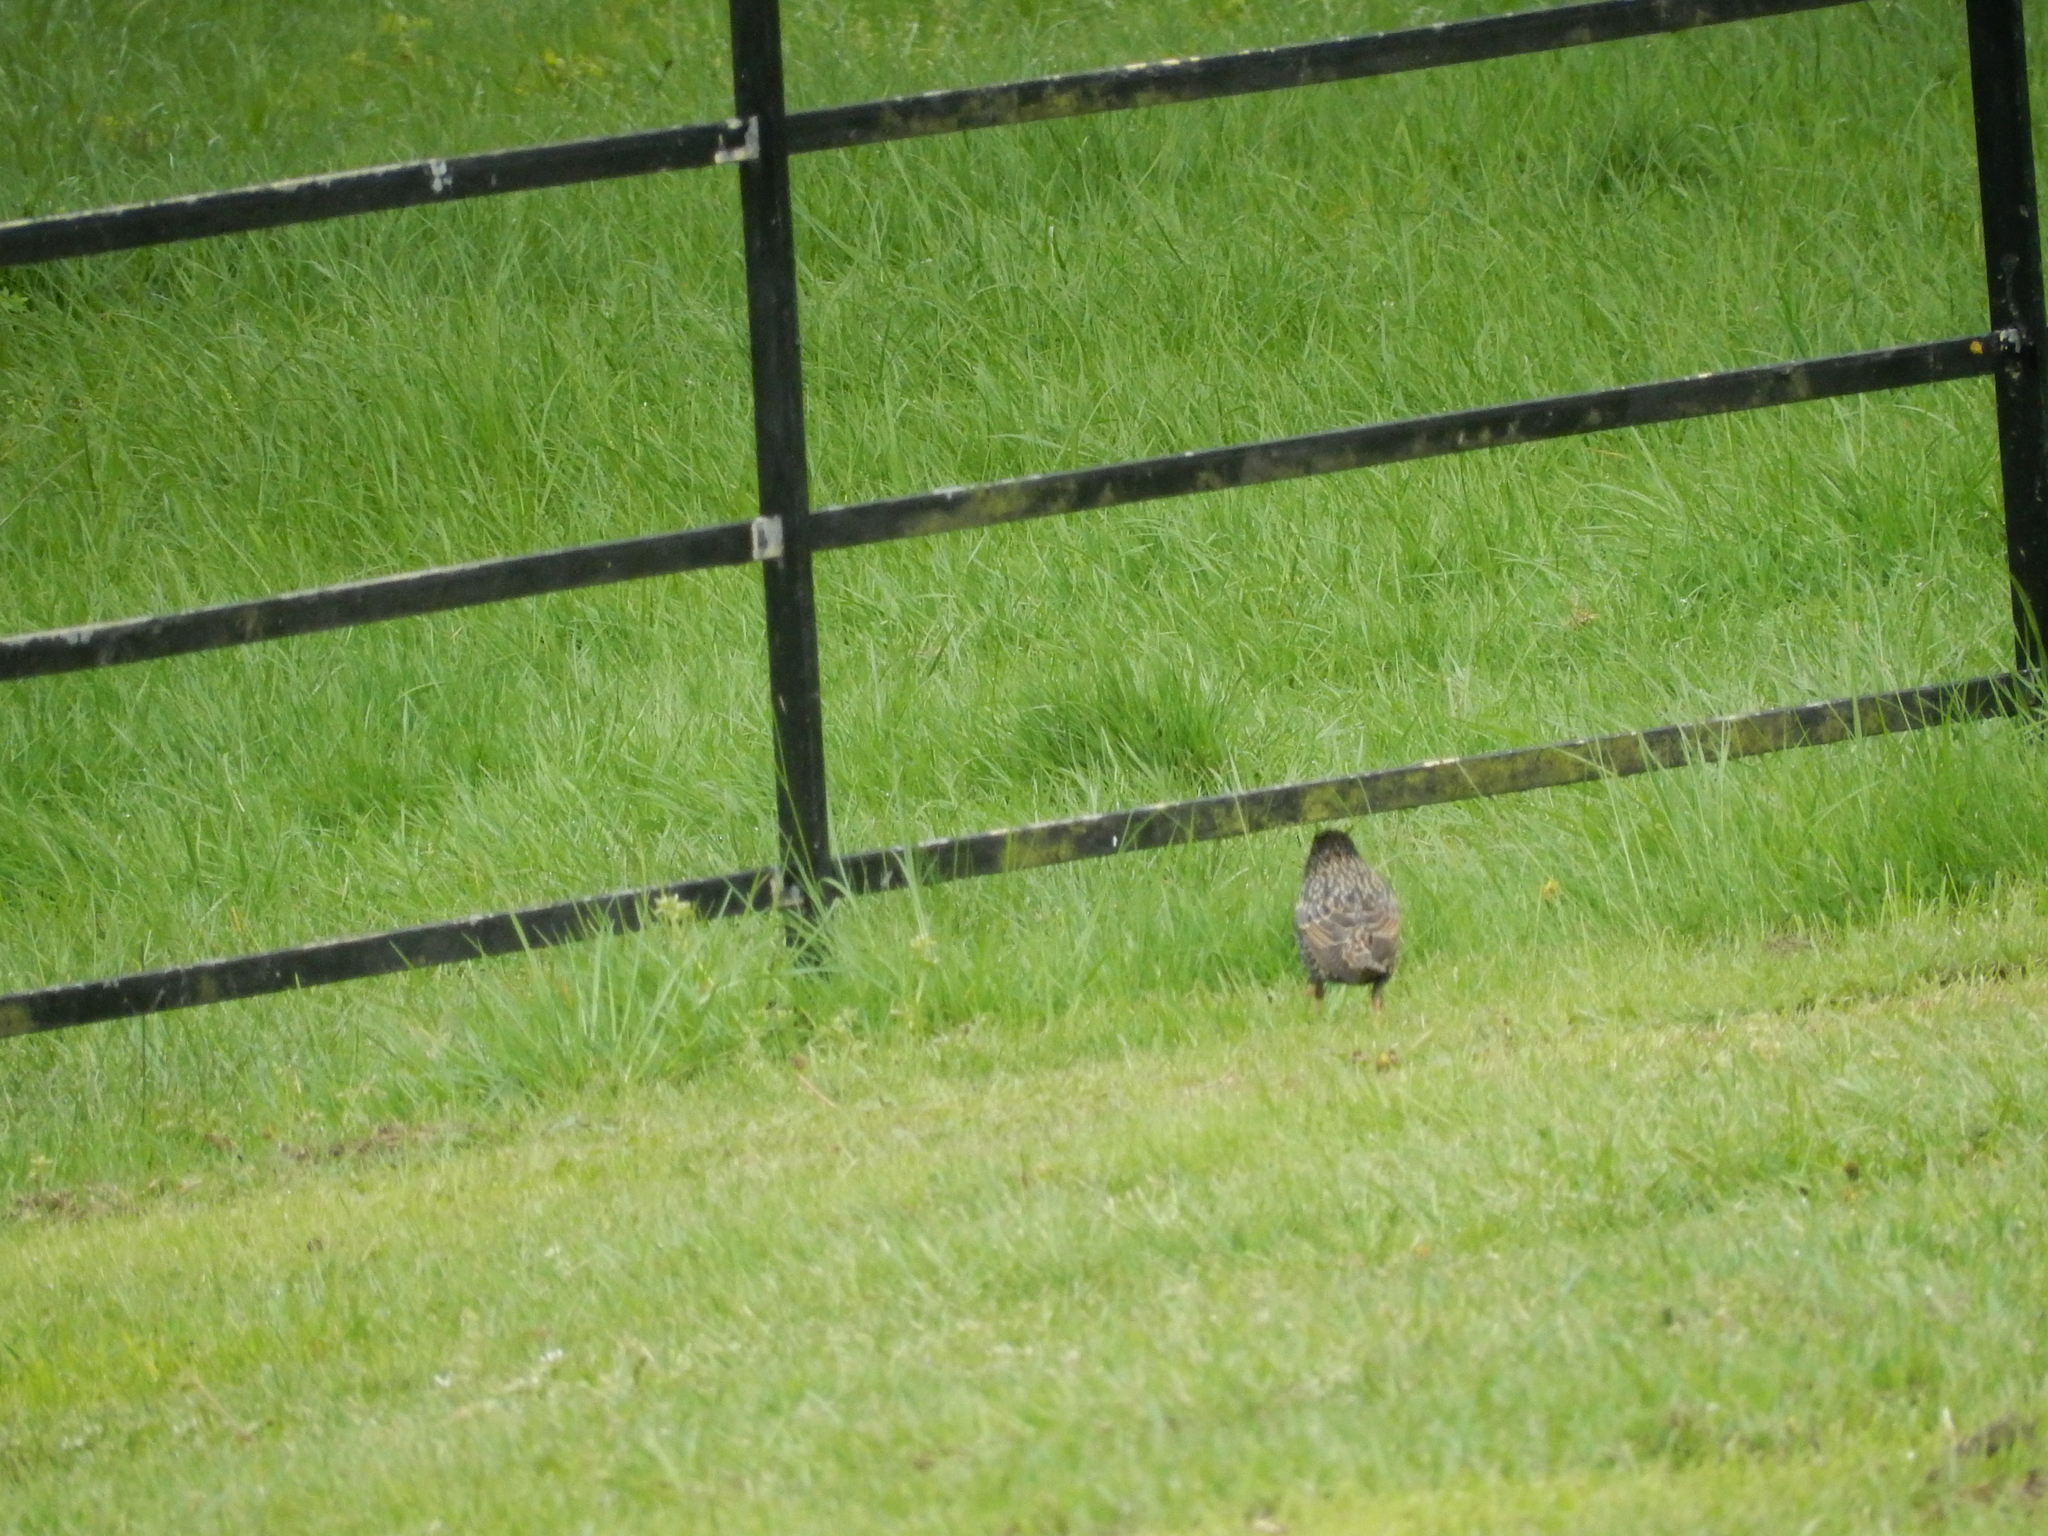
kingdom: Animalia
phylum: Chordata
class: Aves
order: Passeriformes
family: Sturnidae
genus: Sturnus
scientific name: Sturnus vulgaris
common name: Common starling
